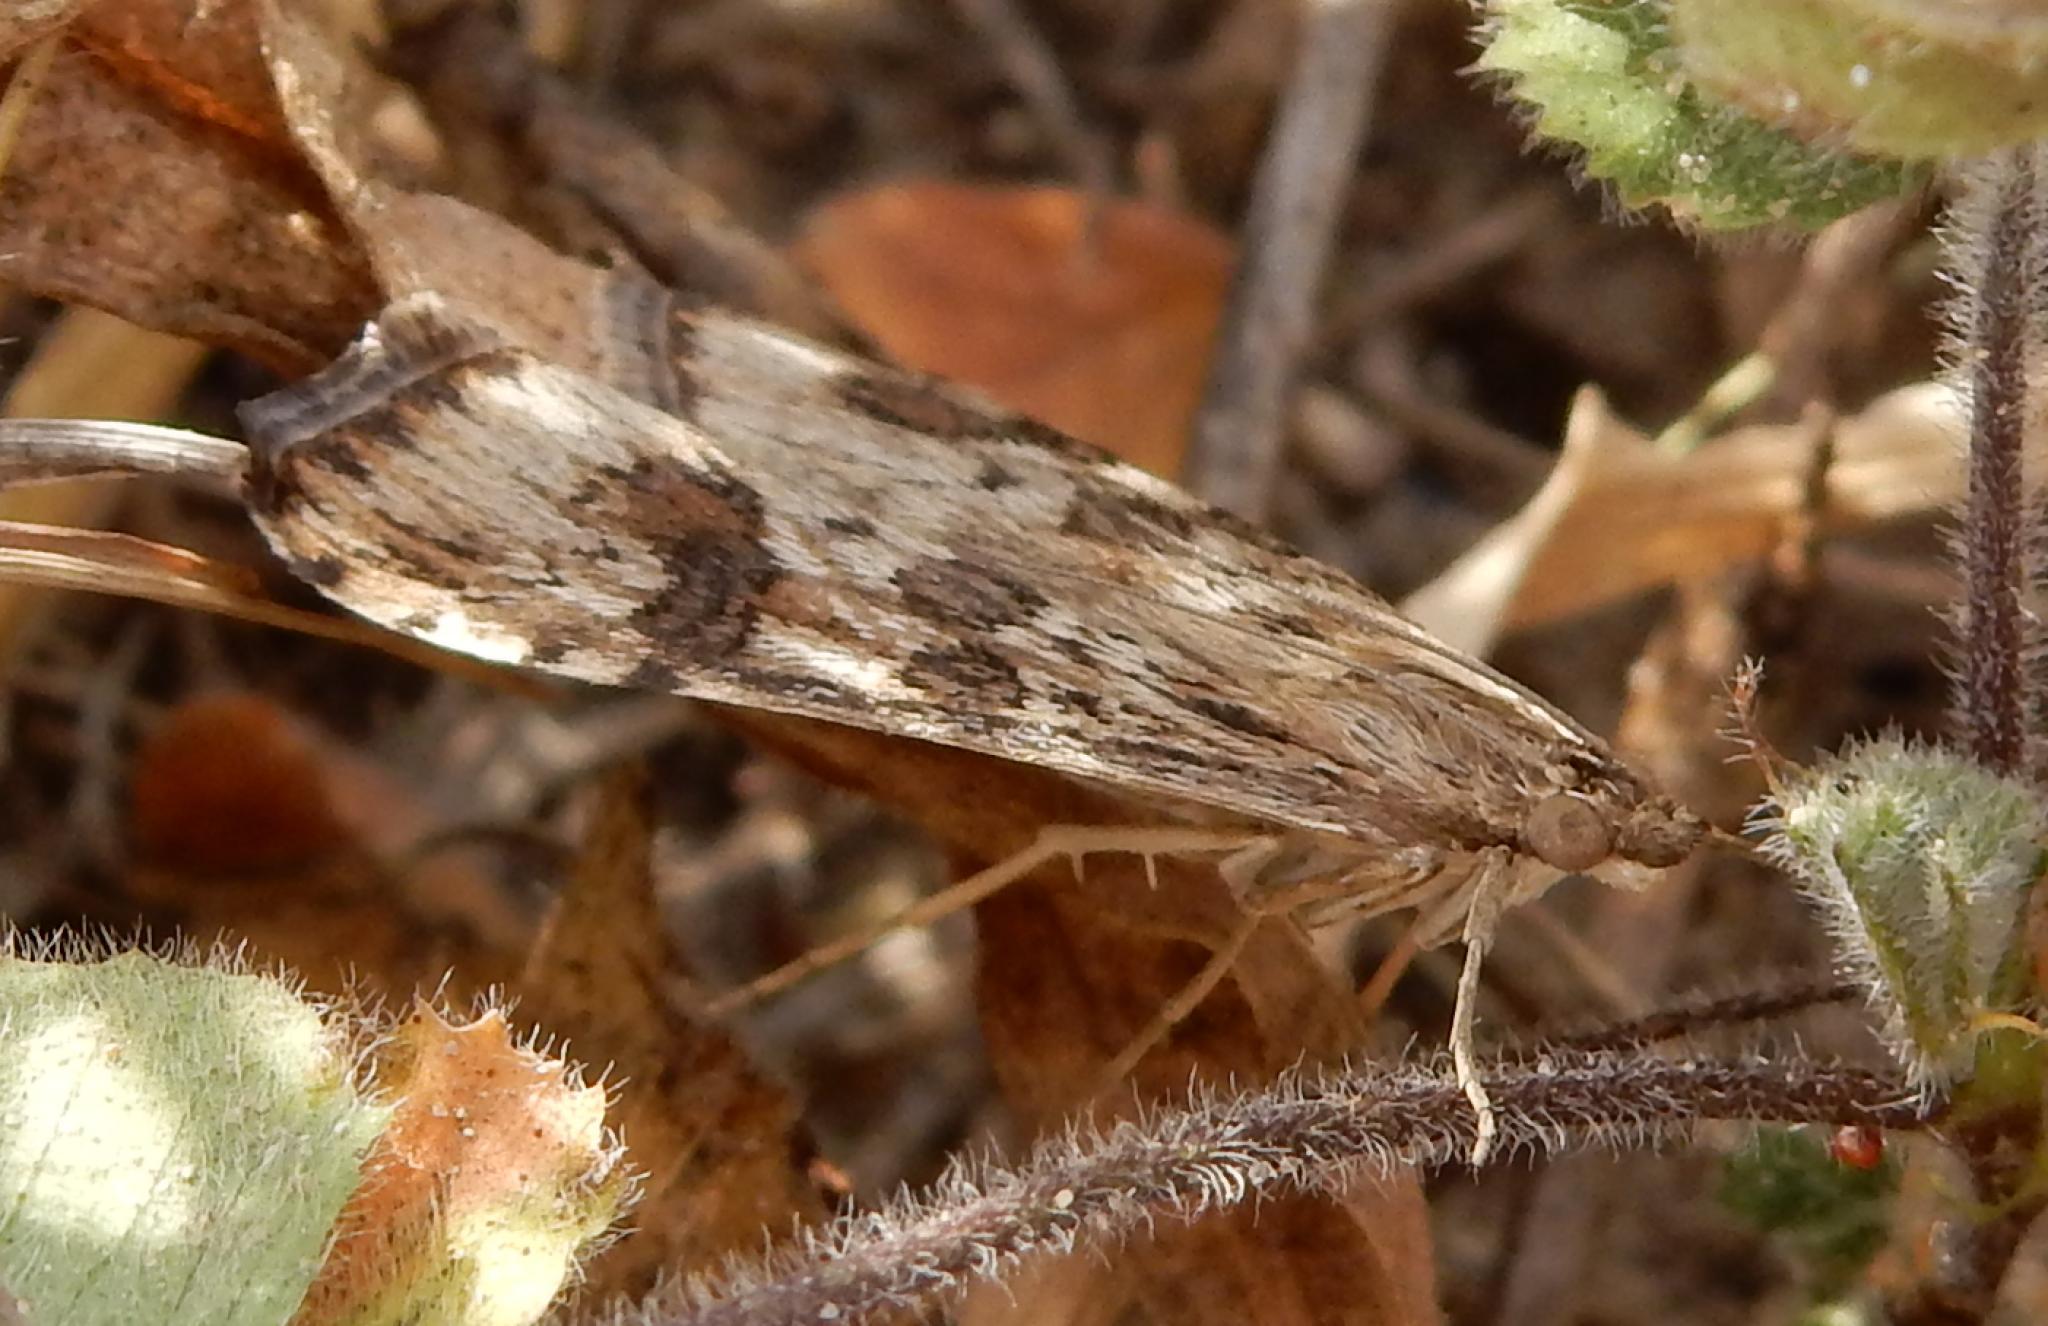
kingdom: Animalia
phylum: Arthropoda
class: Insecta
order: Lepidoptera
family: Crambidae
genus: Nomophila
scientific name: Nomophila noctuella
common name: Rush veneer
